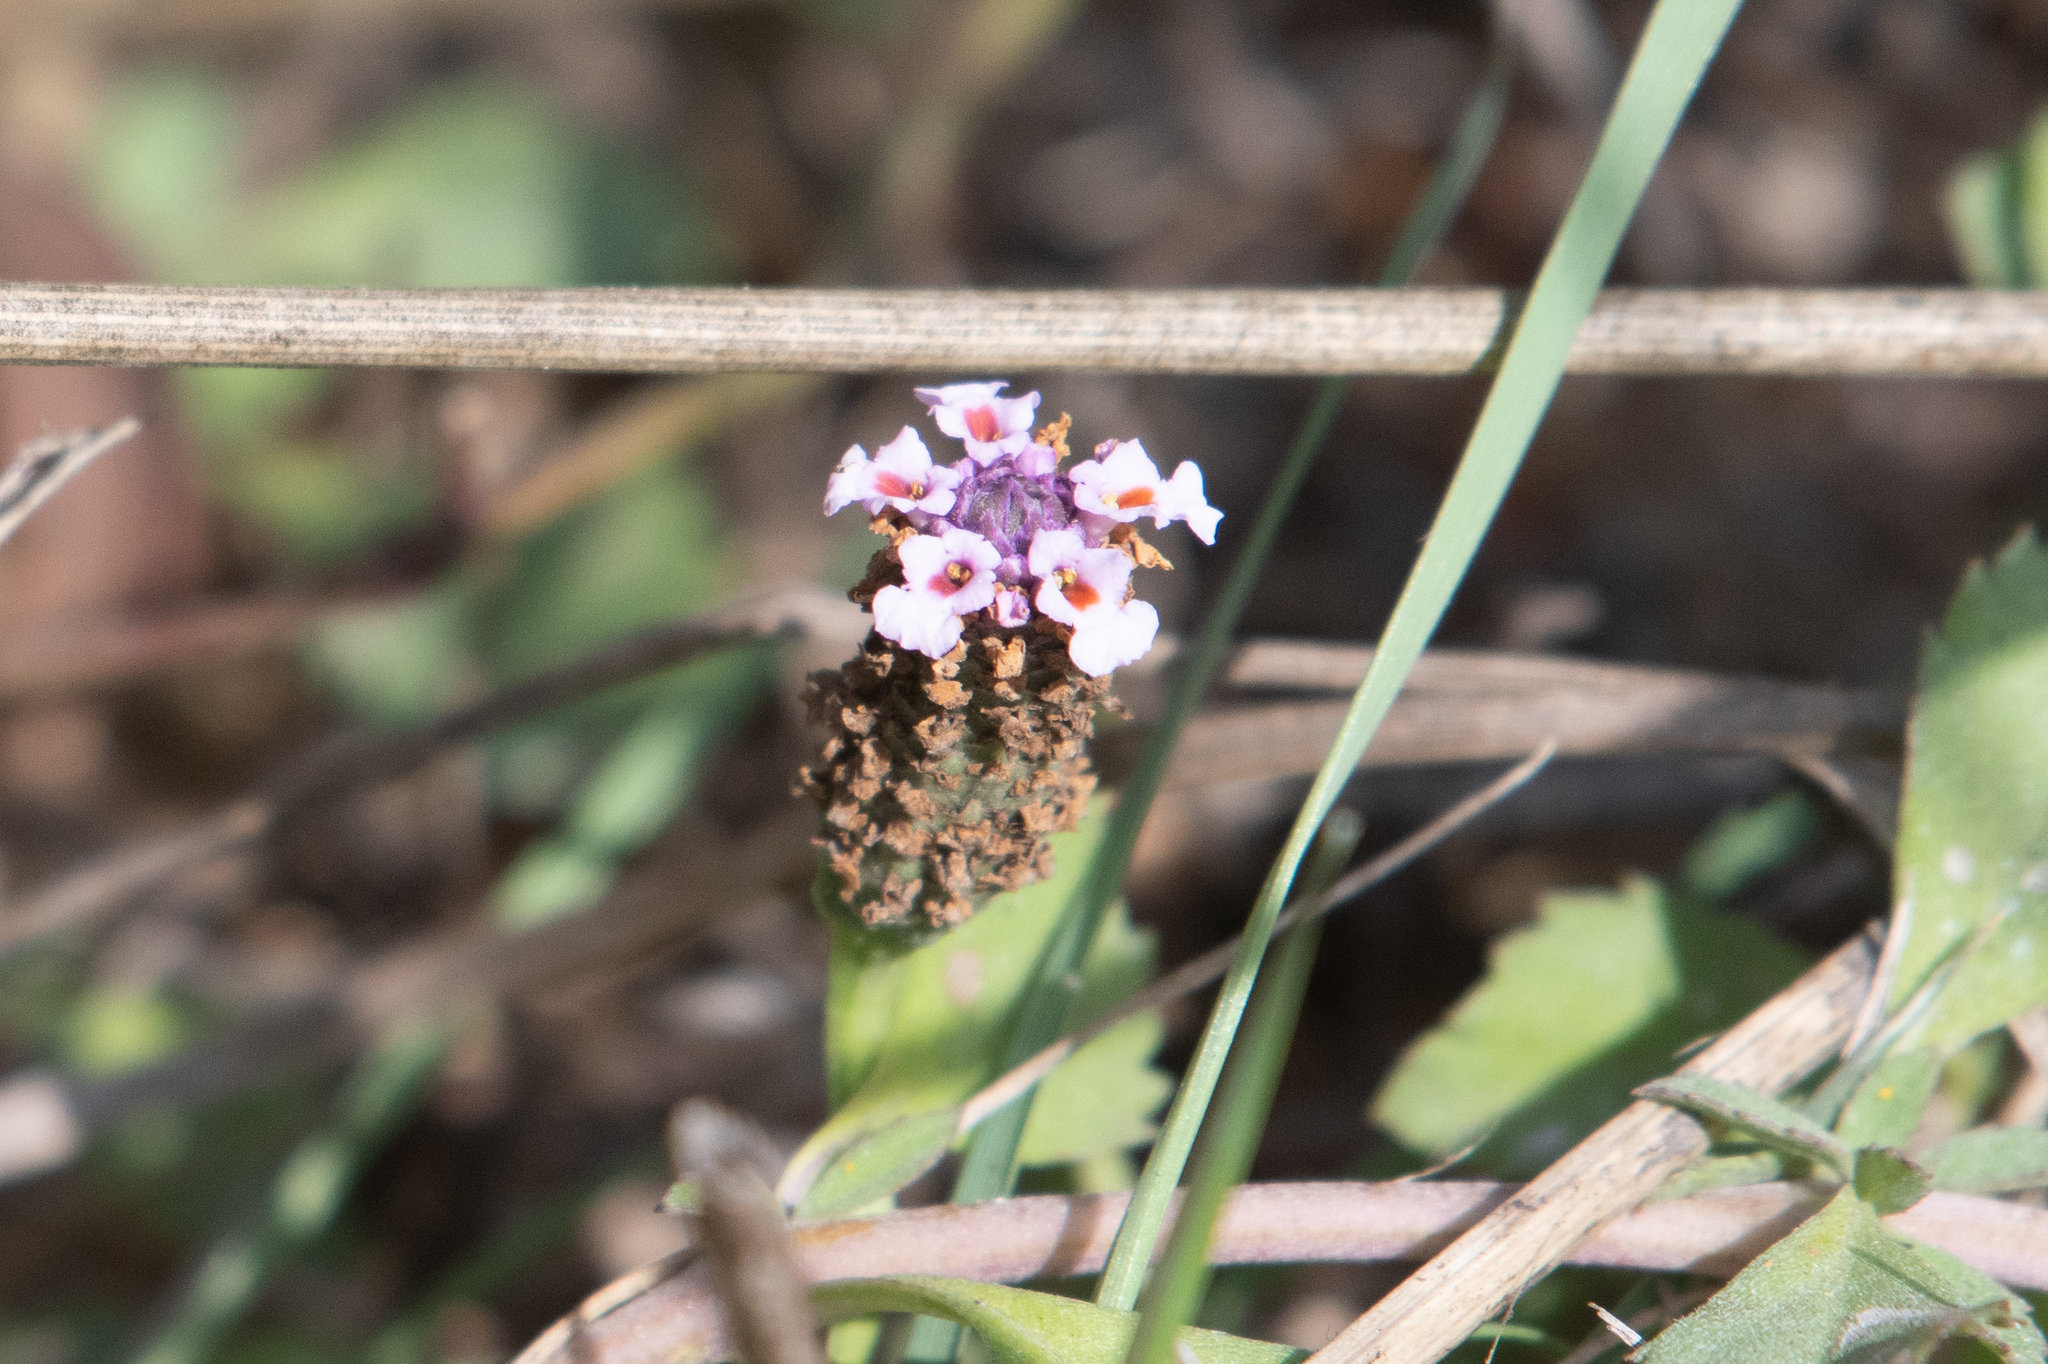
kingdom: Plantae
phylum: Tracheophyta
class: Magnoliopsida
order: Lamiales
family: Verbenaceae
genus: Phyla
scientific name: Phyla nodiflora
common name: Frogfruit
